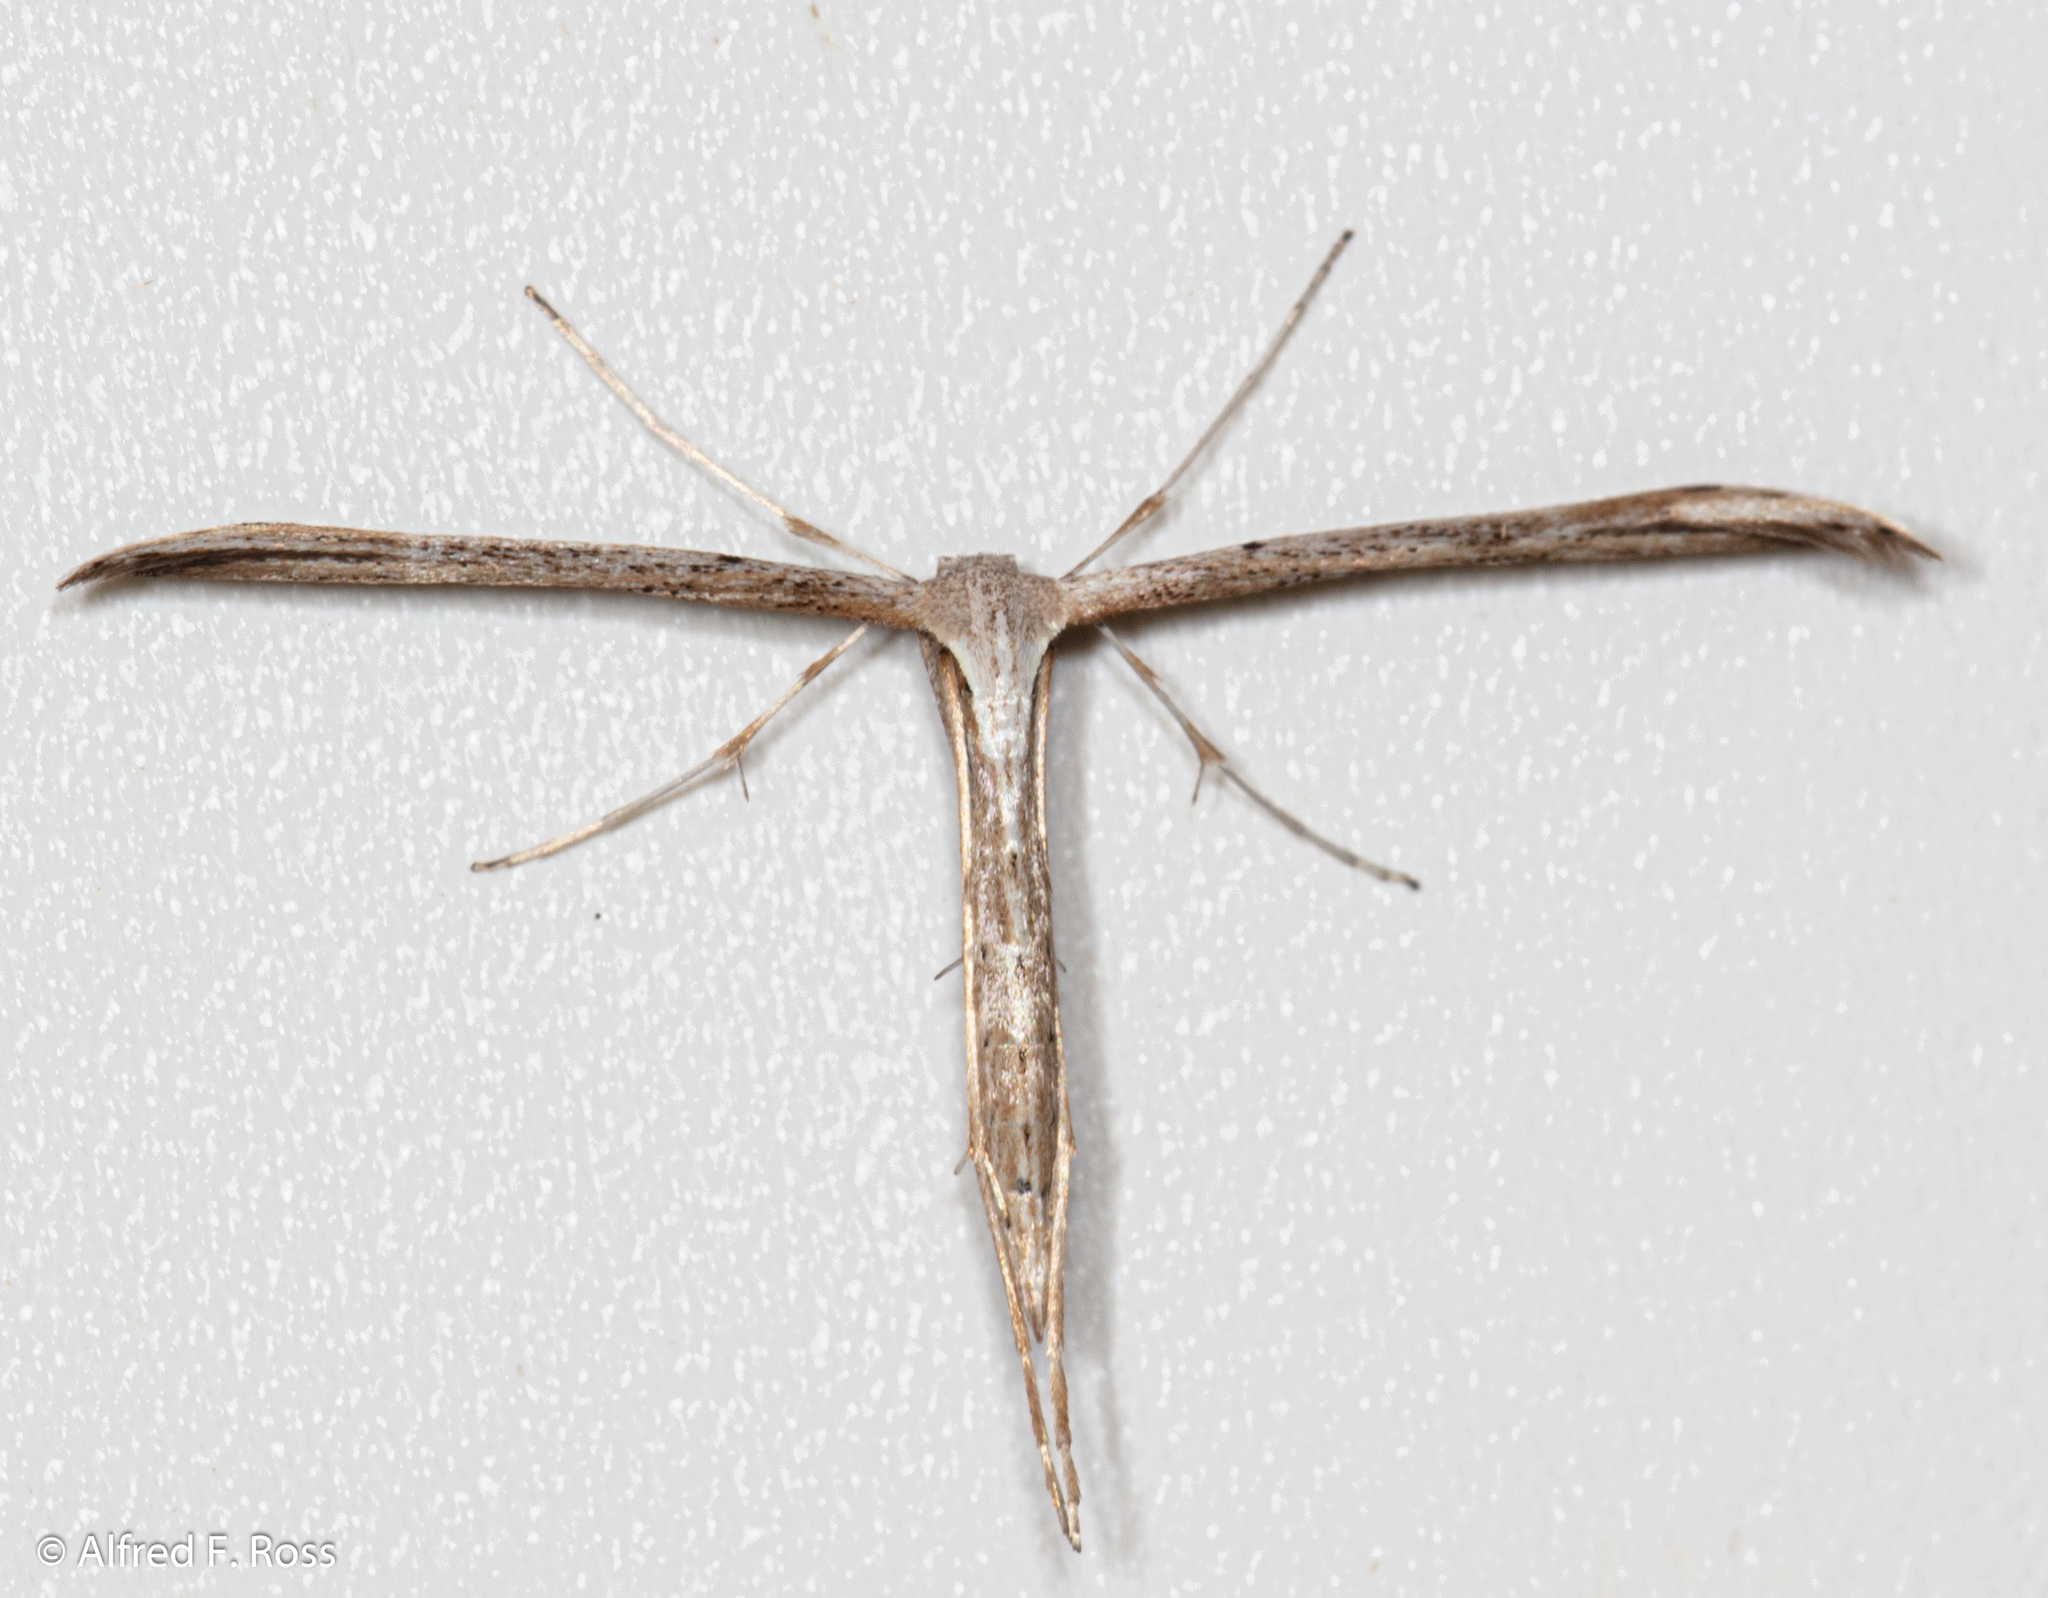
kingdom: Animalia
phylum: Arthropoda
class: Insecta
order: Lepidoptera
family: Pterophoridae
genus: Emmelina
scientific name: Emmelina monodactyla
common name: Common plume
